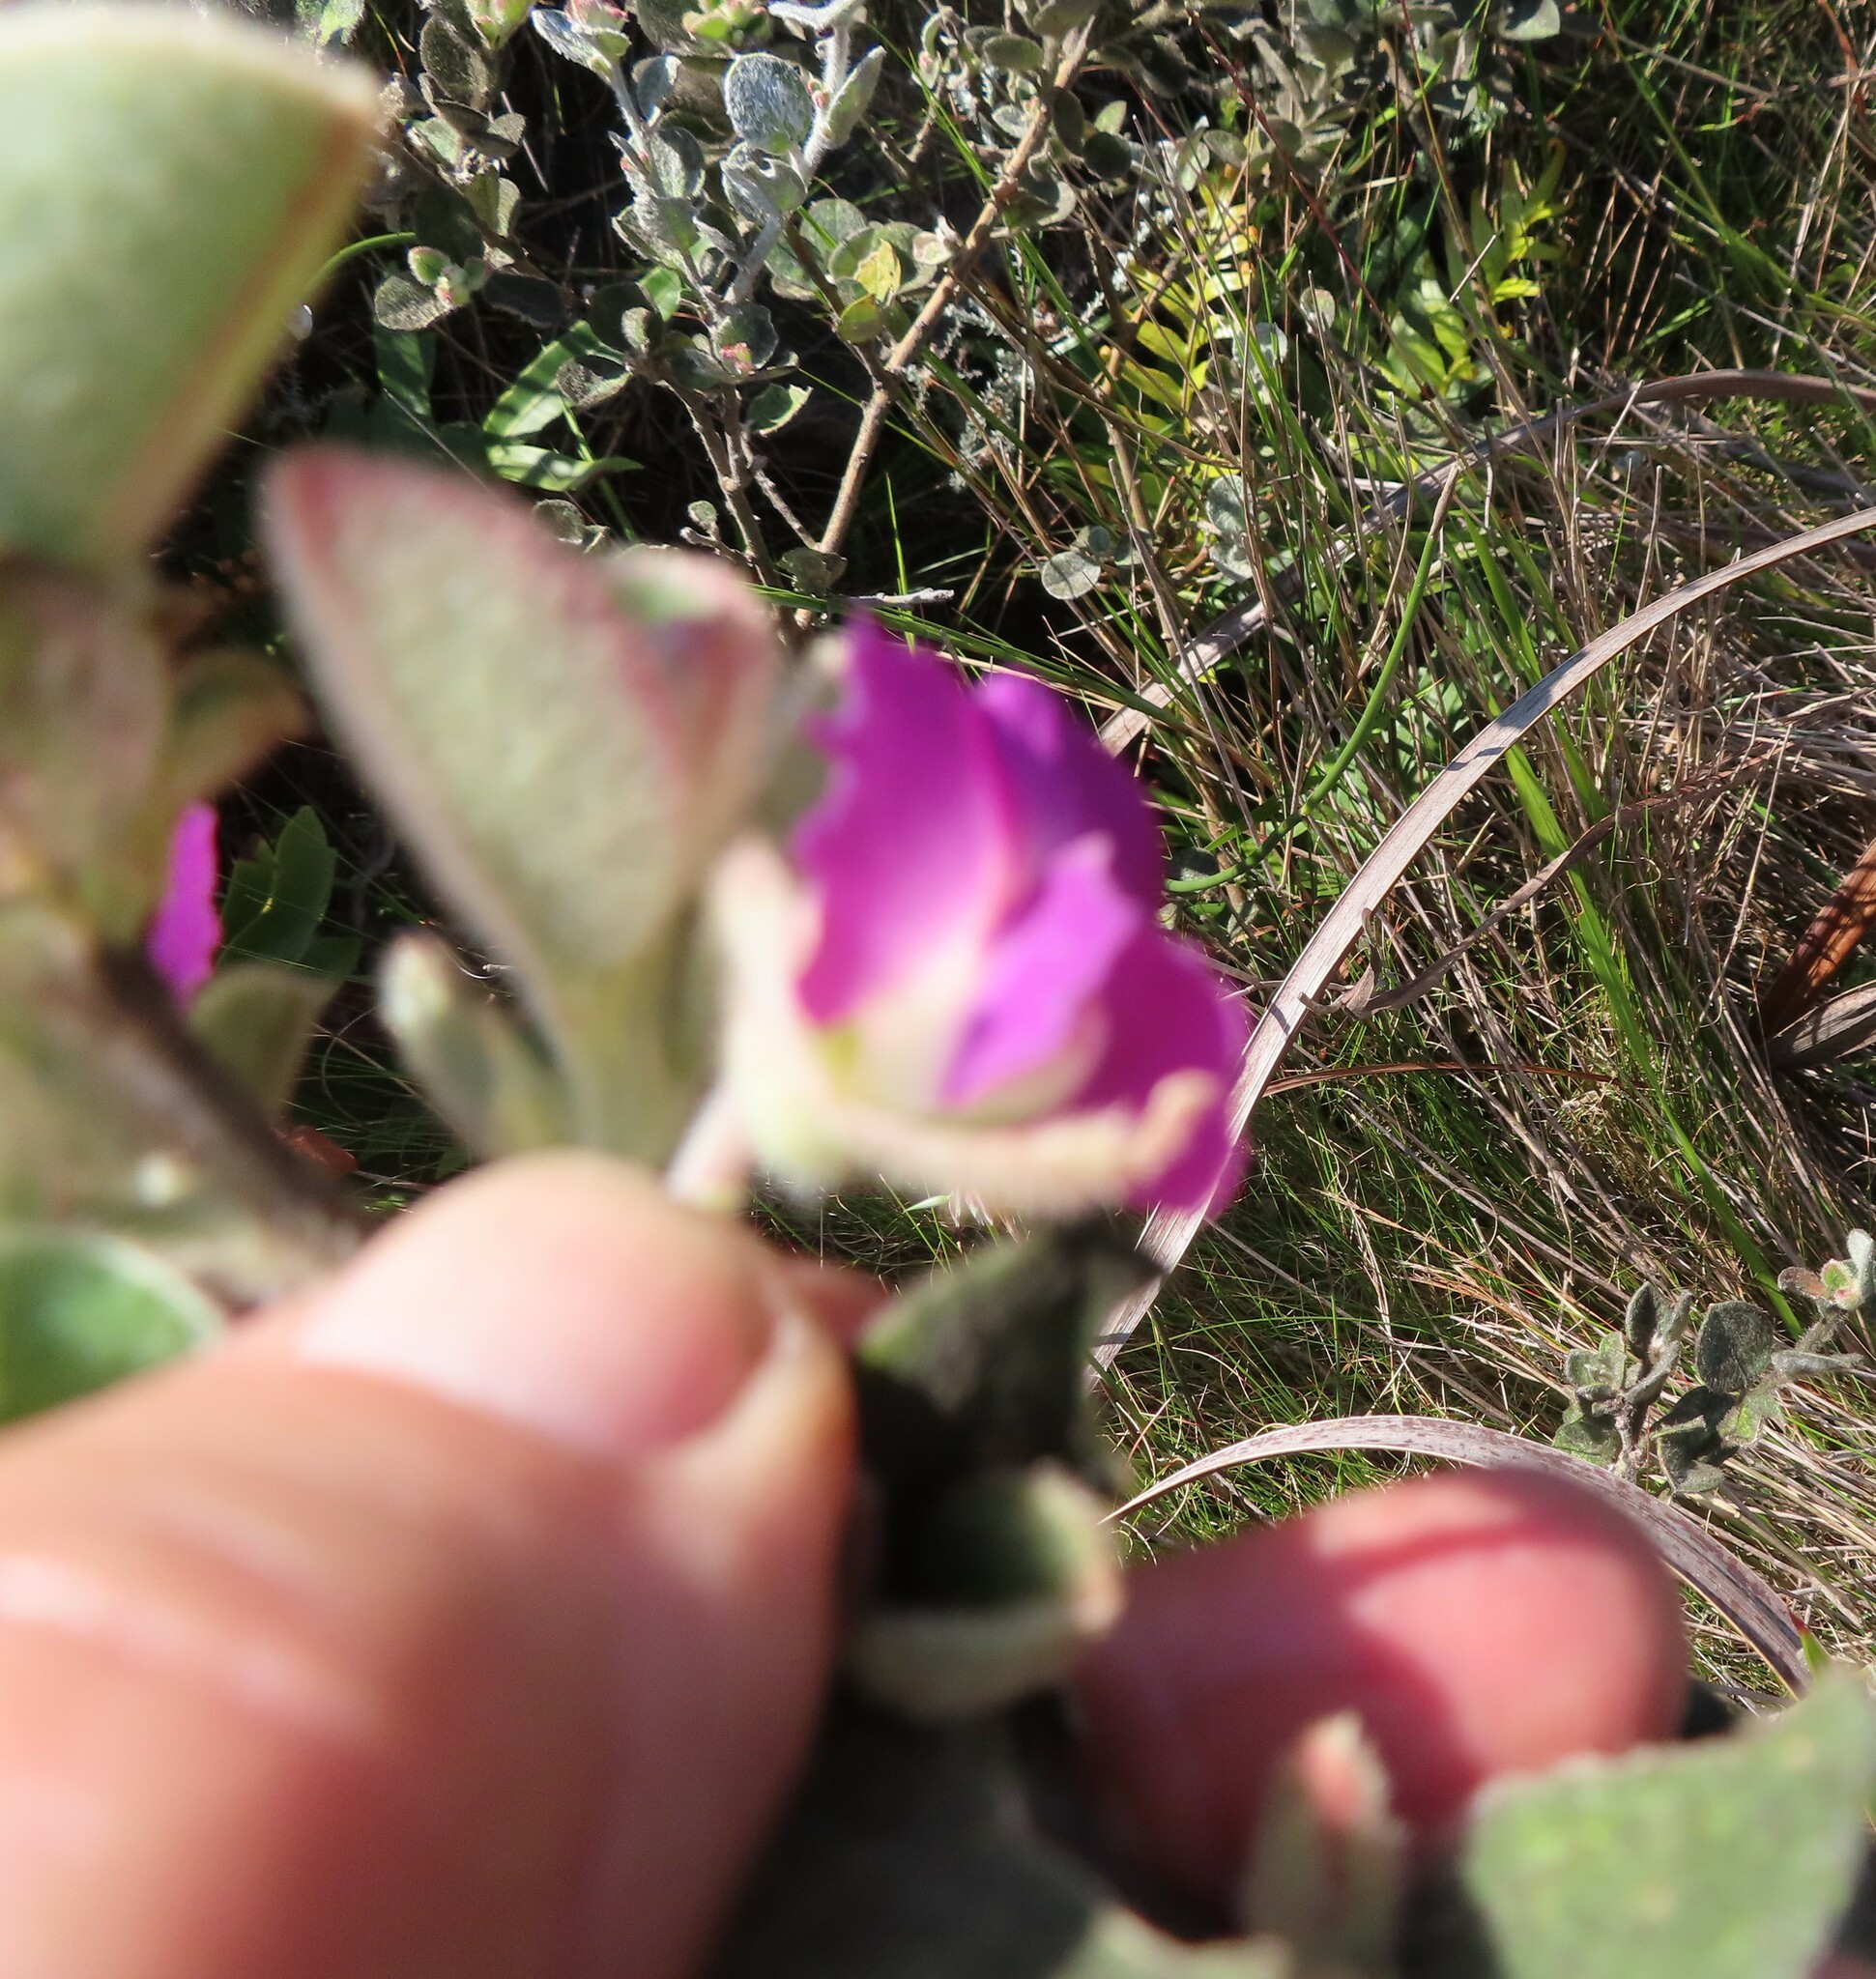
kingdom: Plantae
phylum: Tracheophyta
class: Magnoliopsida
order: Fabales
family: Fabaceae
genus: Podalyria
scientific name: Podalyria hirsuta
